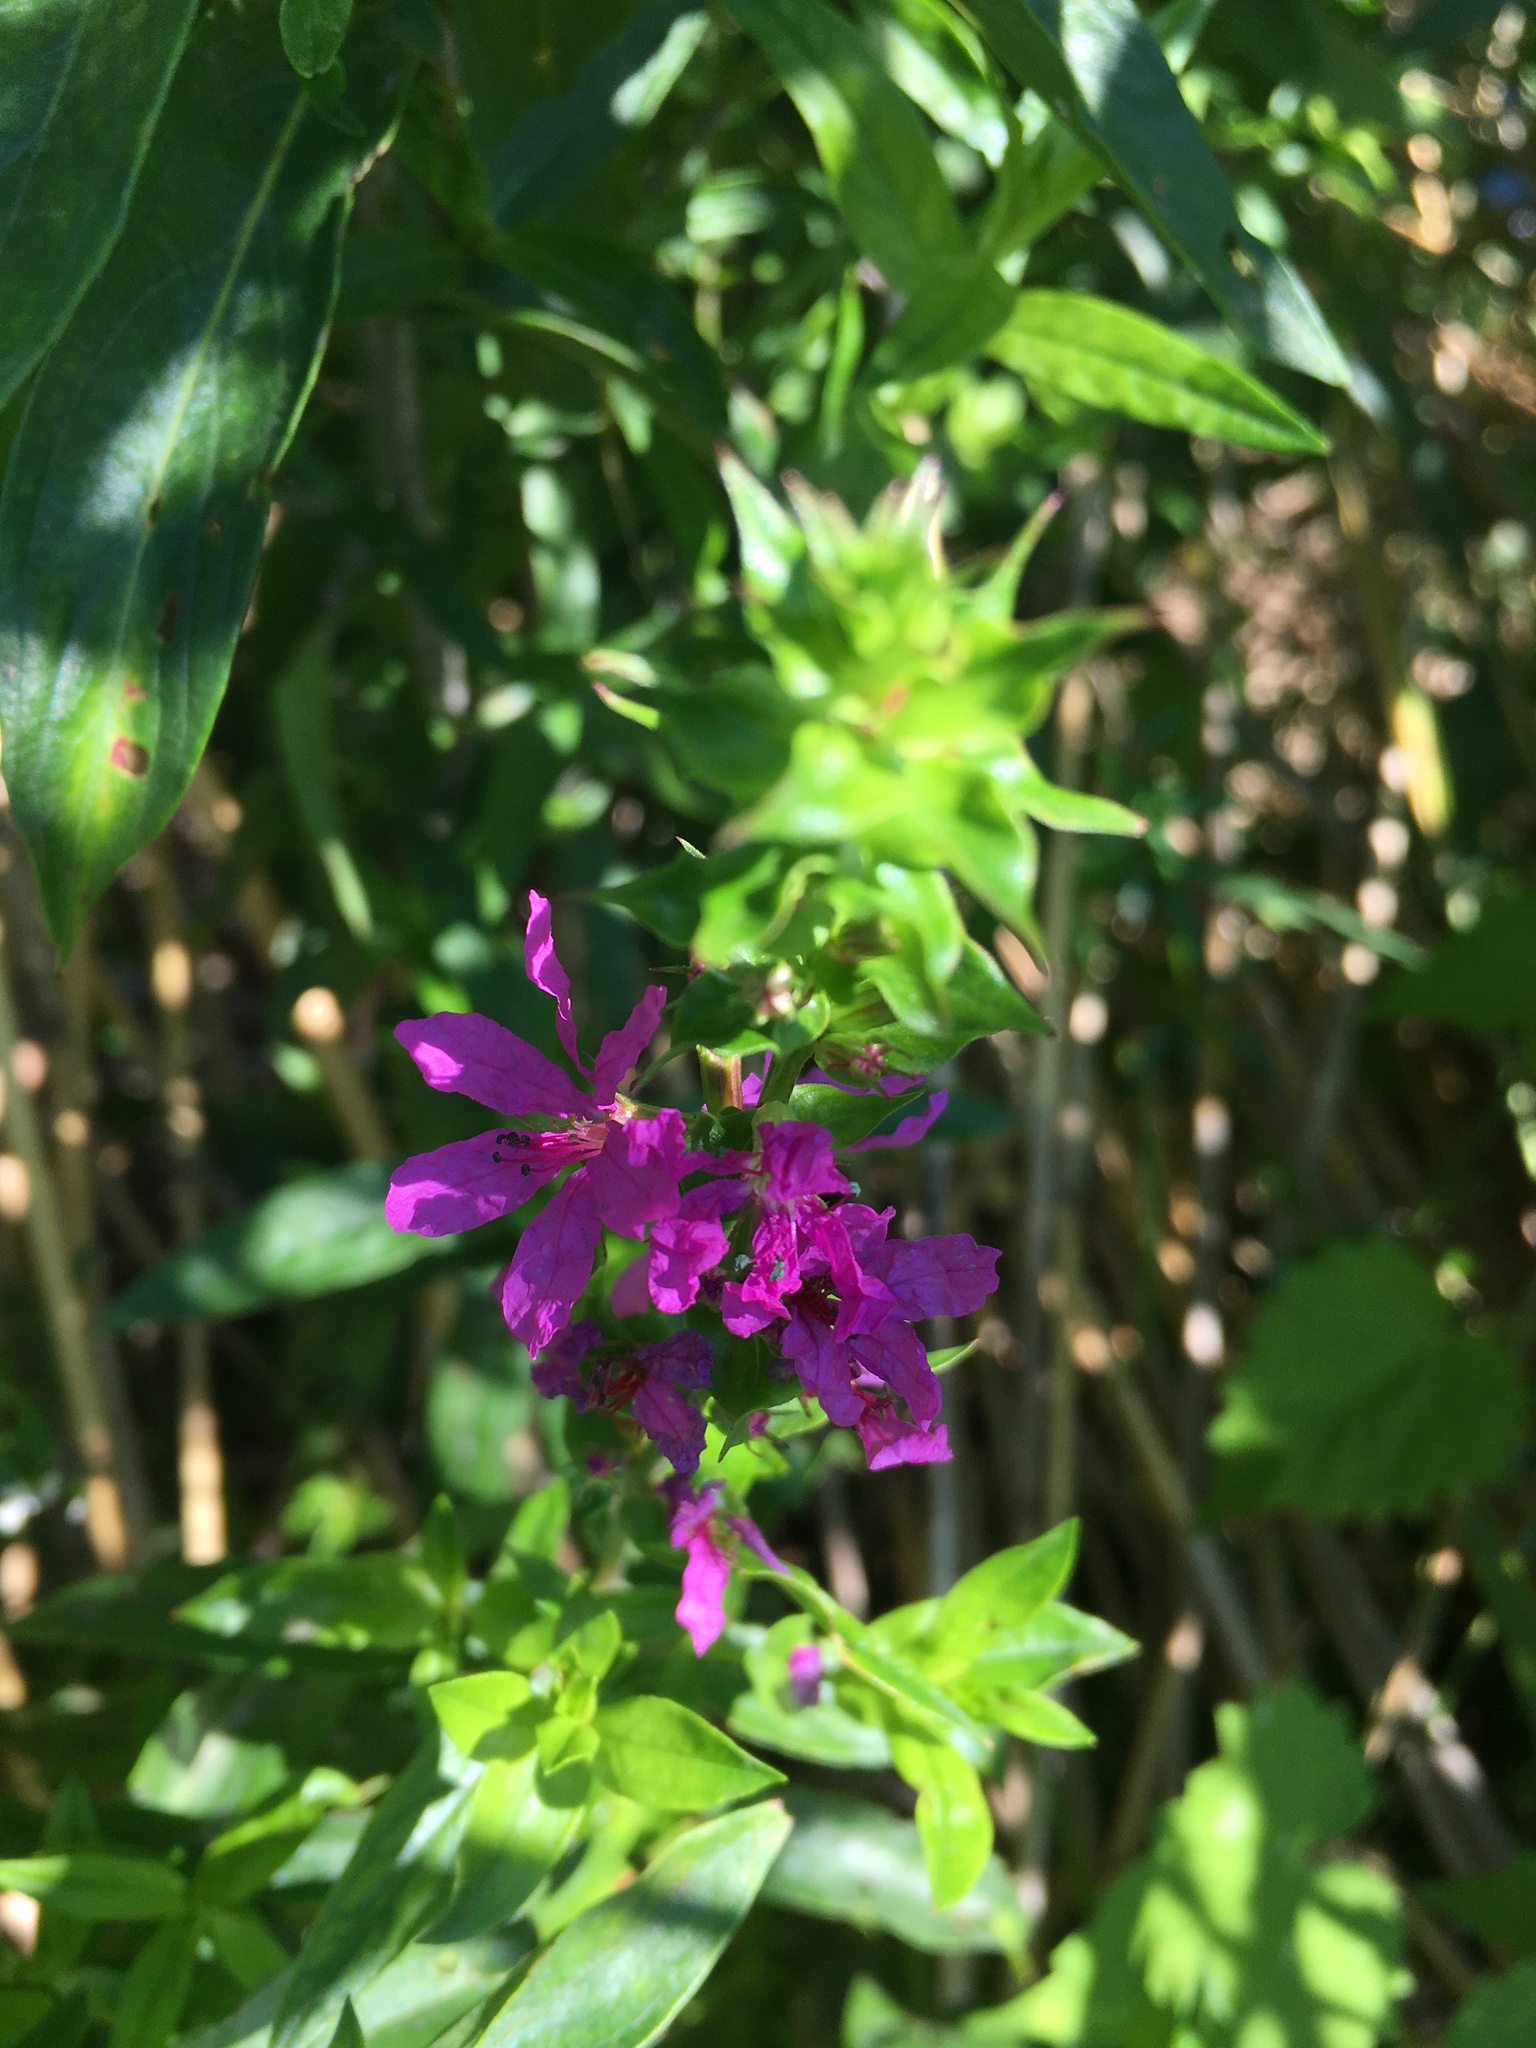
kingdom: Plantae
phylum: Tracheophyta
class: Magnoliopsida
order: Myrtales
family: Lythraceae
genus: Lythrum
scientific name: Lythrum salicaria
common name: Purple loosestrife
